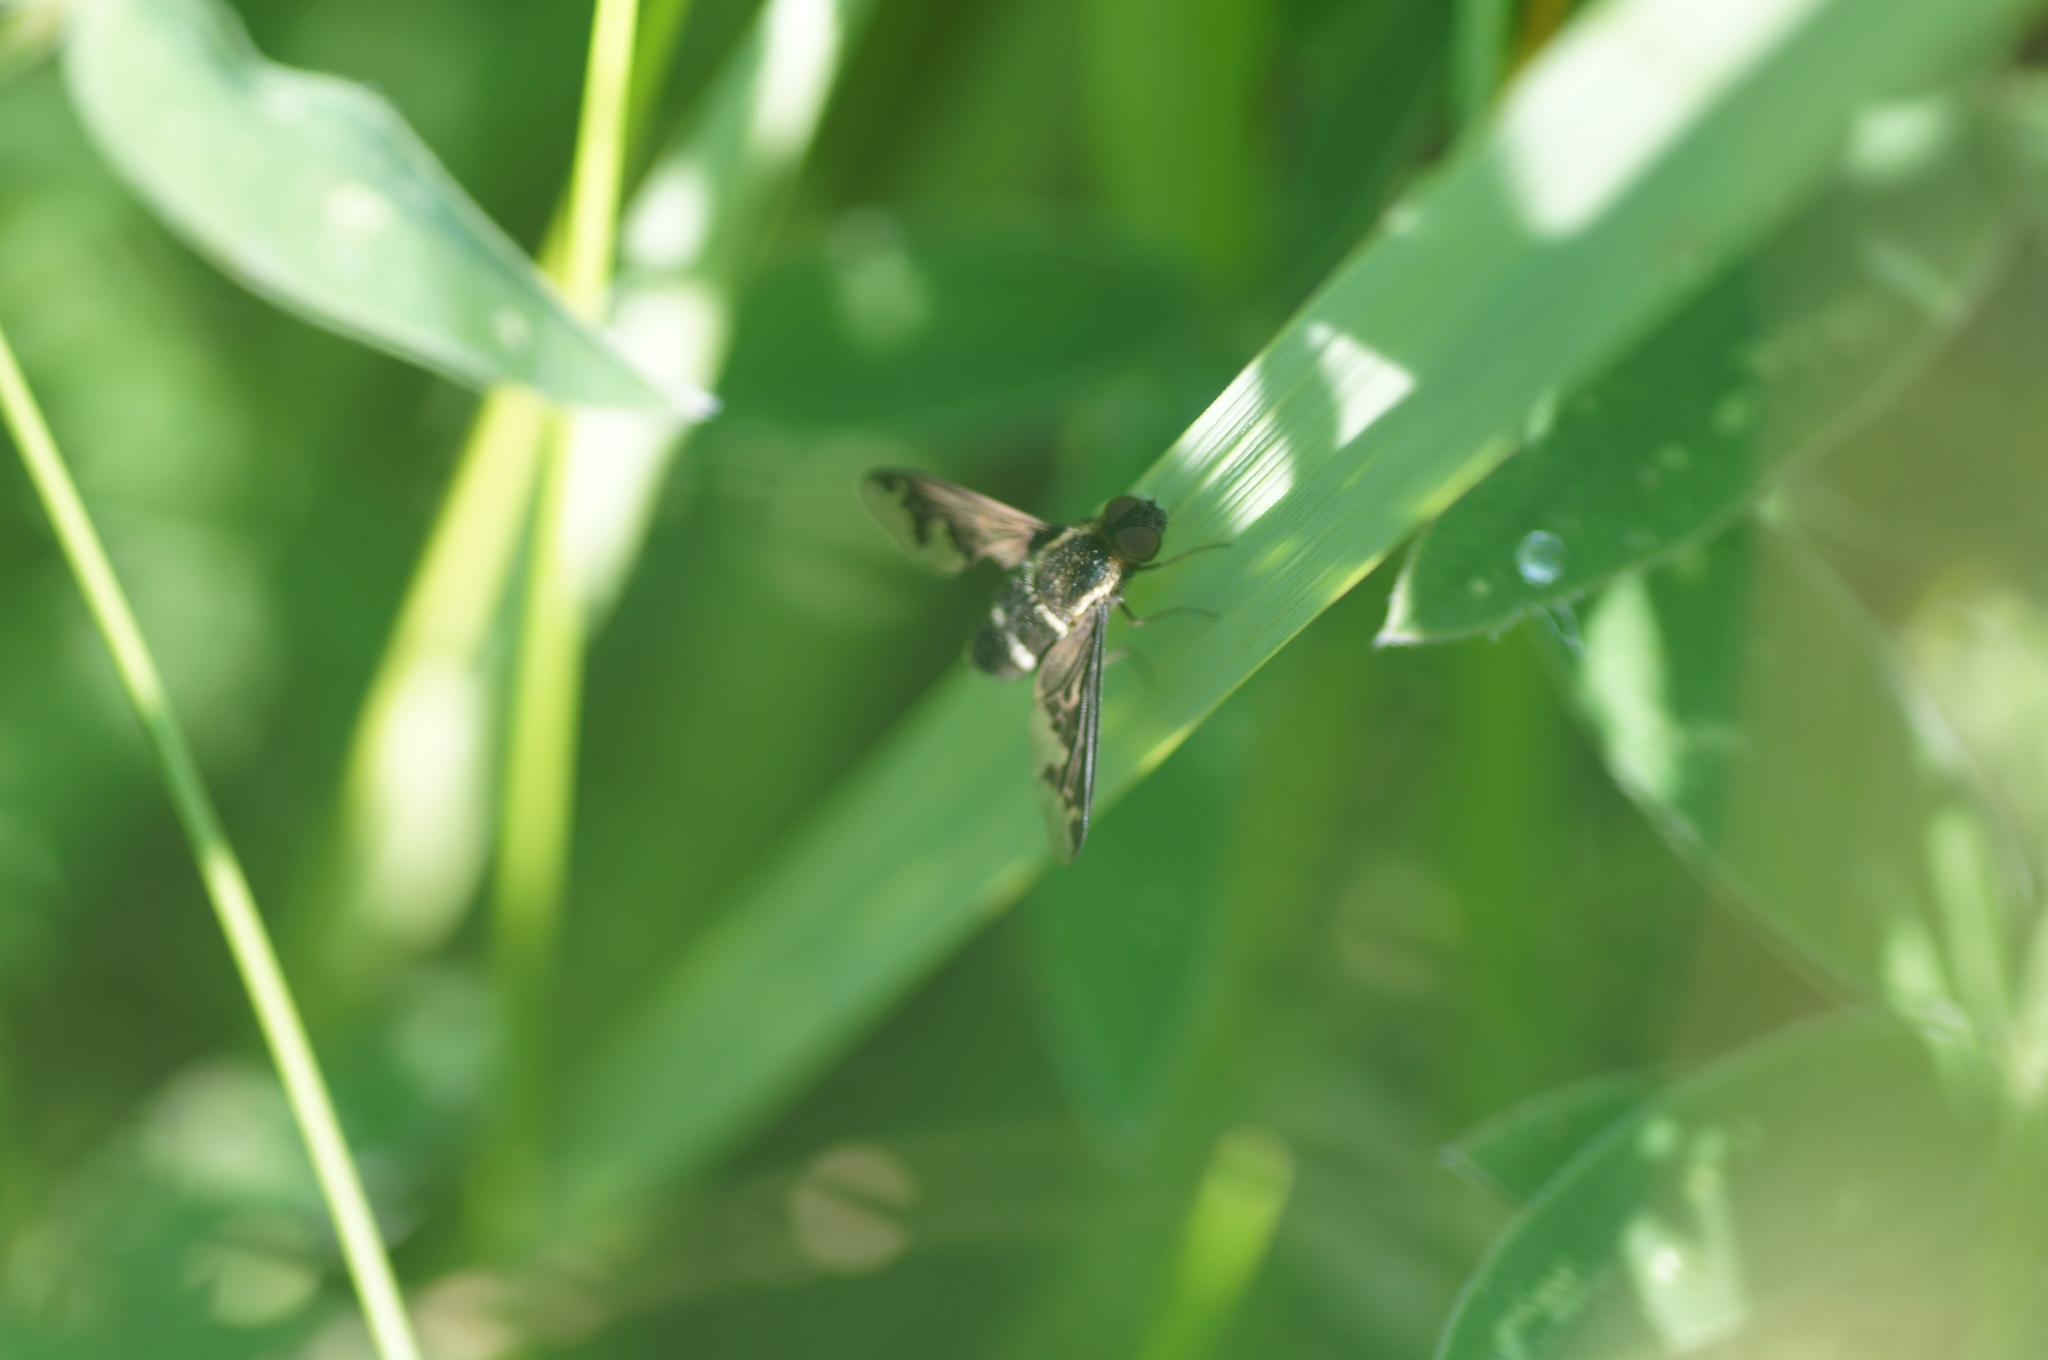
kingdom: Animalia
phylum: Arthropoda
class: Insecta
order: Diptera
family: Bombyliidae
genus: Hemipenthes
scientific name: Hemipenthes maura
